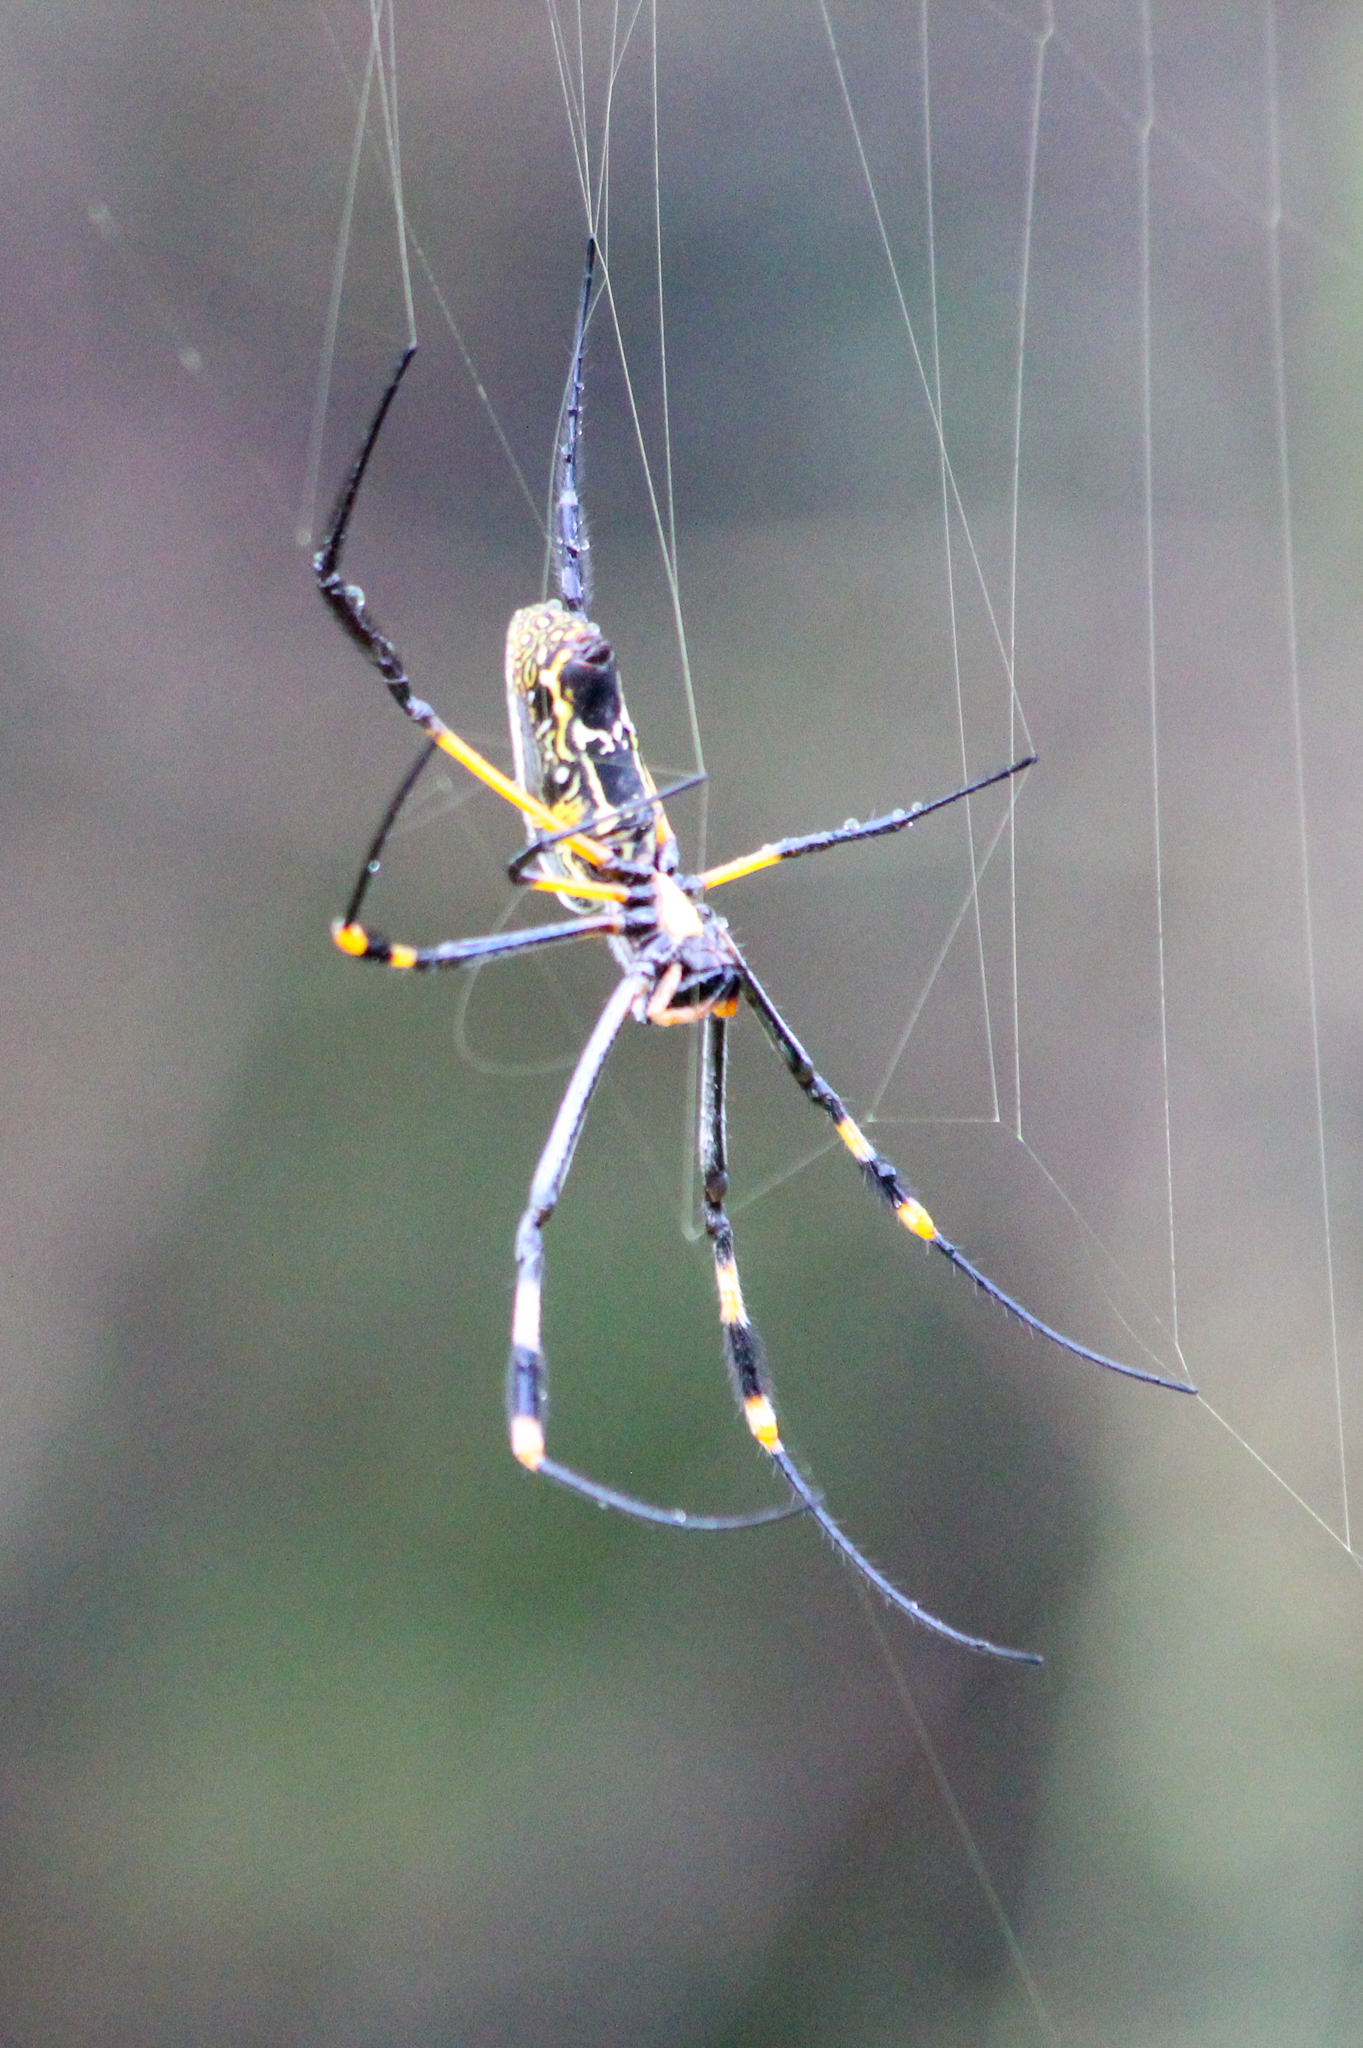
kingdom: Animalia
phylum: Arthropoda
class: Arachnida
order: Araneae
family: Araneidae
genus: Trichonephila
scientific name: Trichonephila senegalensis
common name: Banded golden orb weaver
